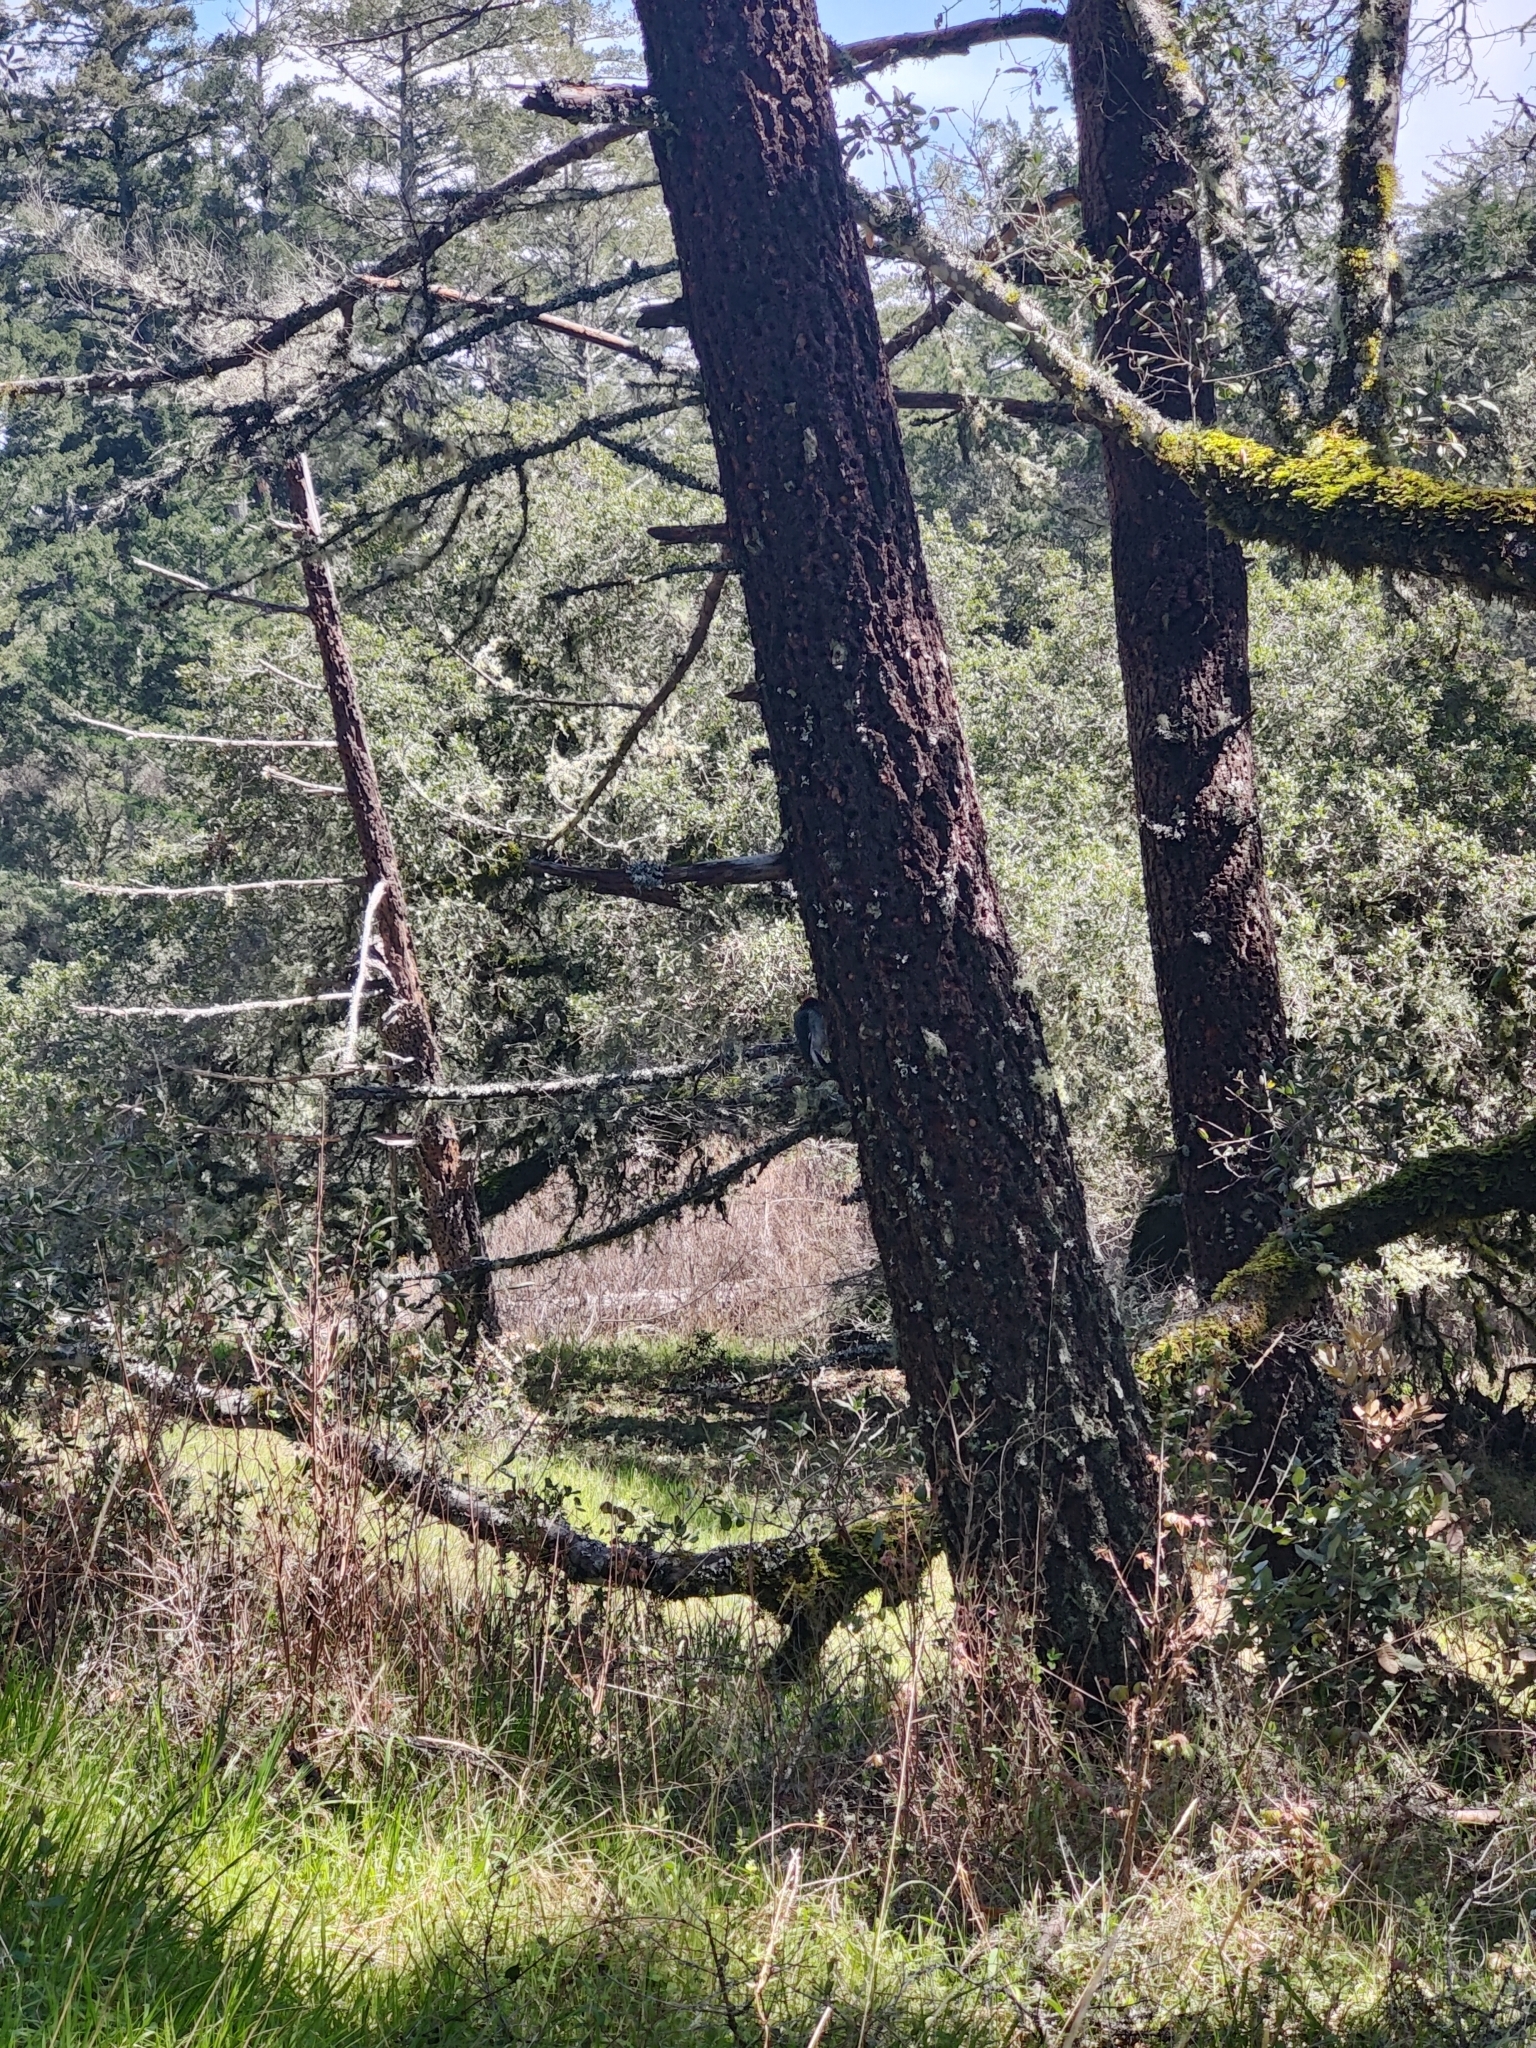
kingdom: Animalia
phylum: Chordata
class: Aves
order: Piciformes
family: Picidae
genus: Melanerpes
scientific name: Melanerpes formicivorus
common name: Acorn woodpecker
